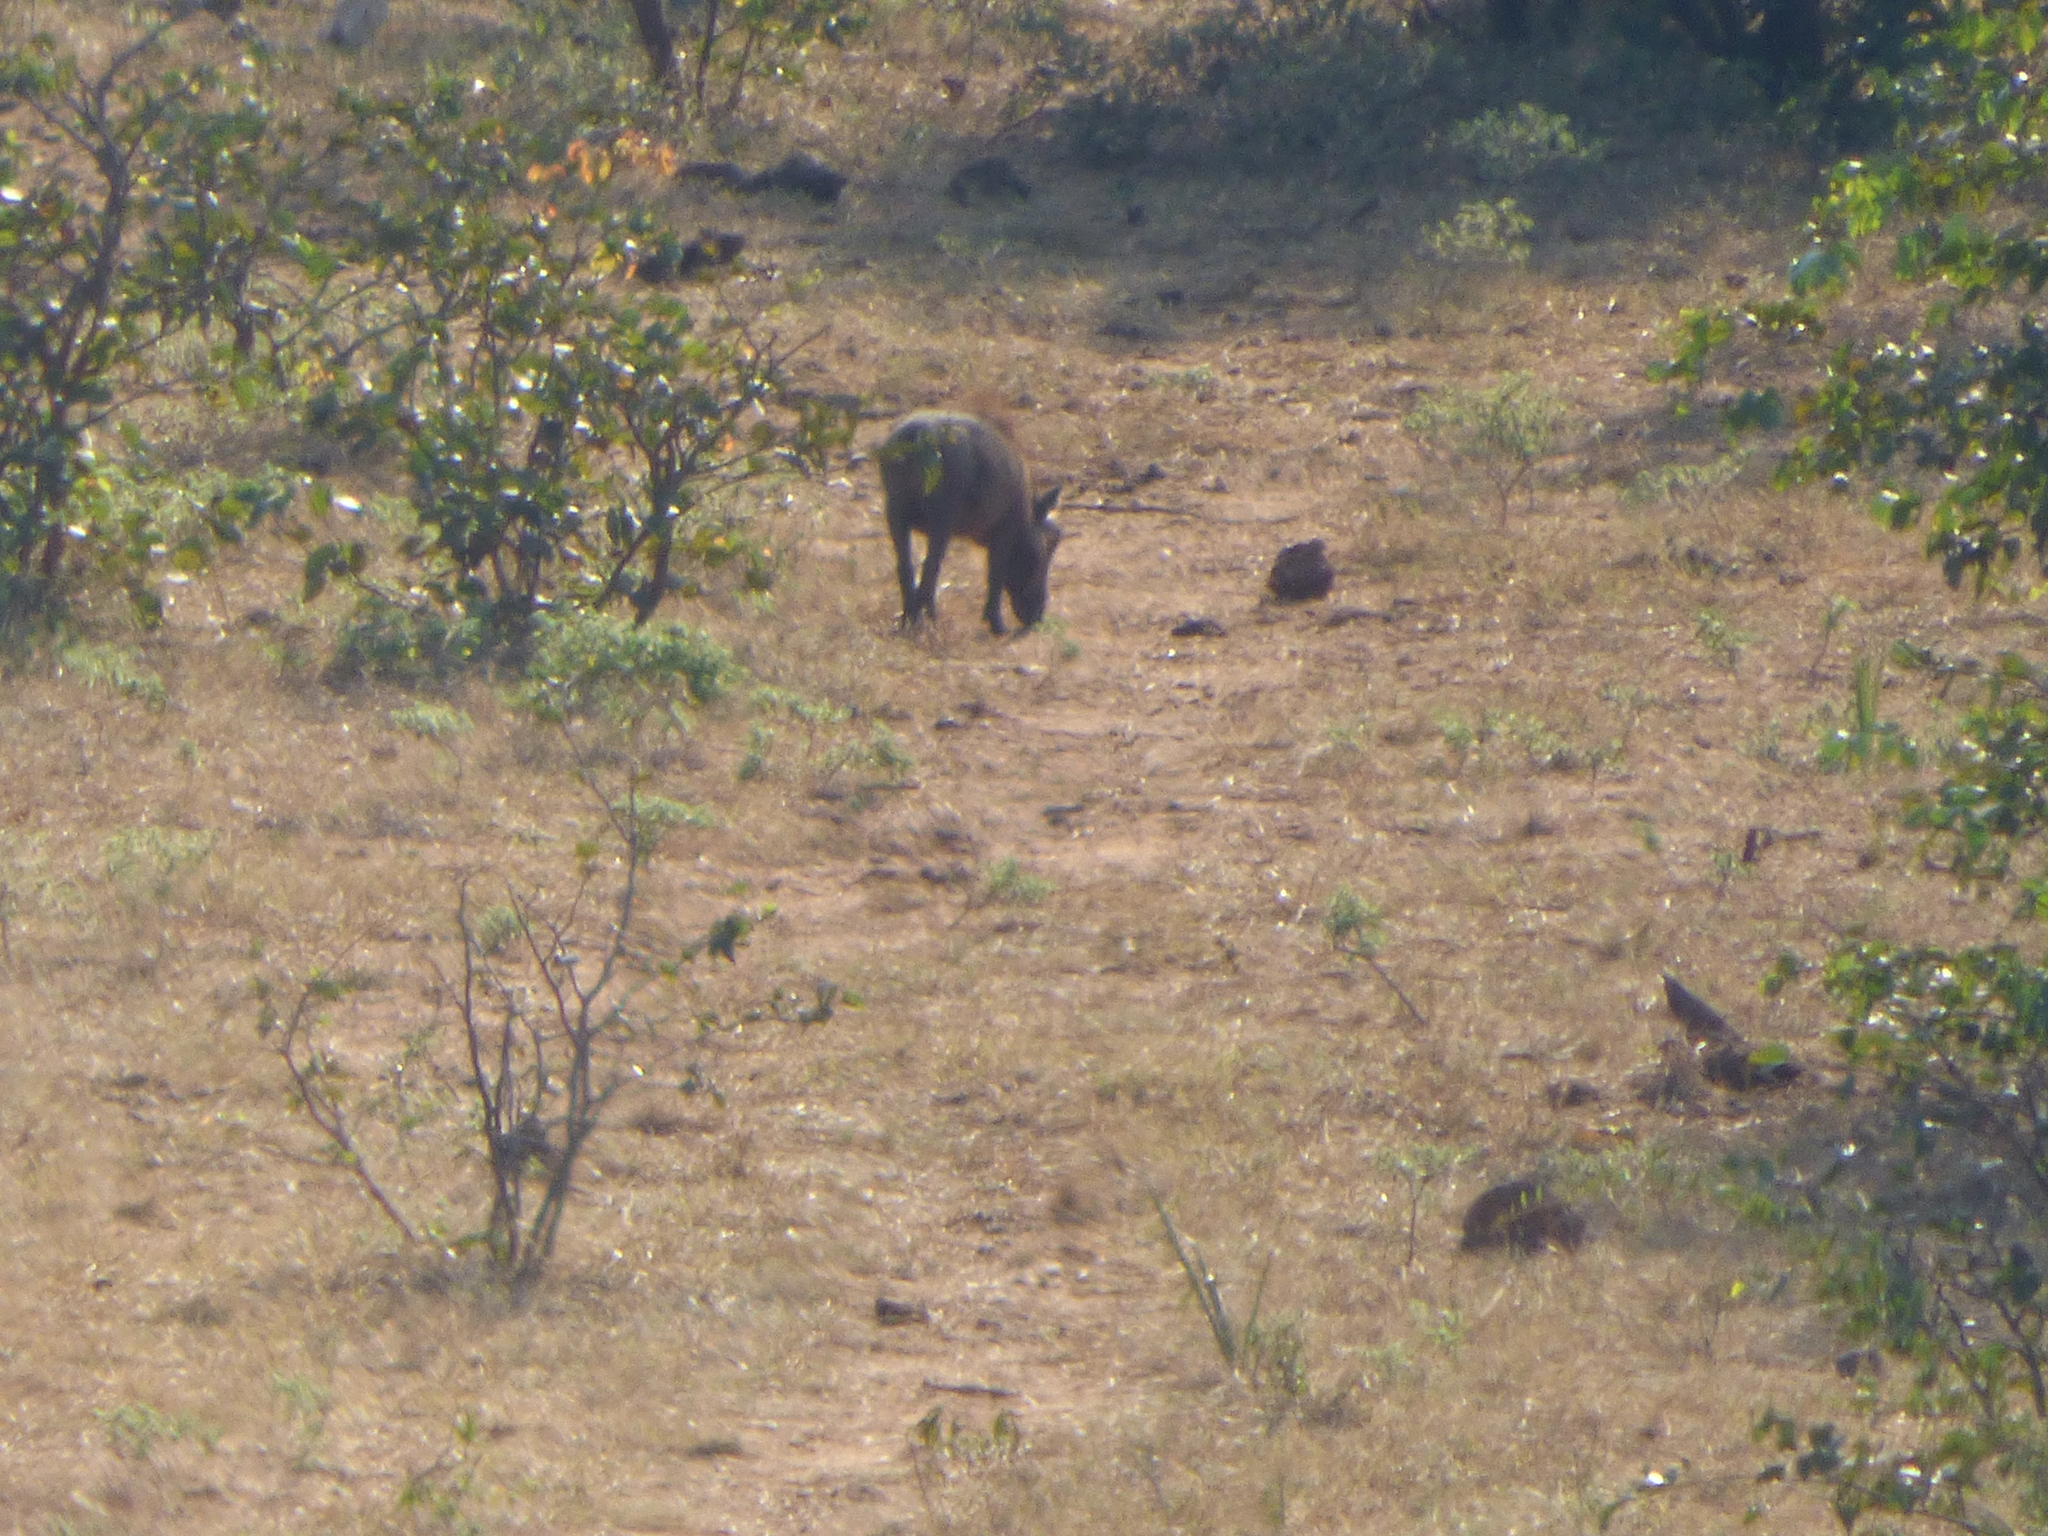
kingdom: Animalia
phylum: Chordata
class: Mammalia
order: Artiodactyla
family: Suidae
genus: Phacochoerus
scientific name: Phacochoerus africanus
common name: Common warthog
